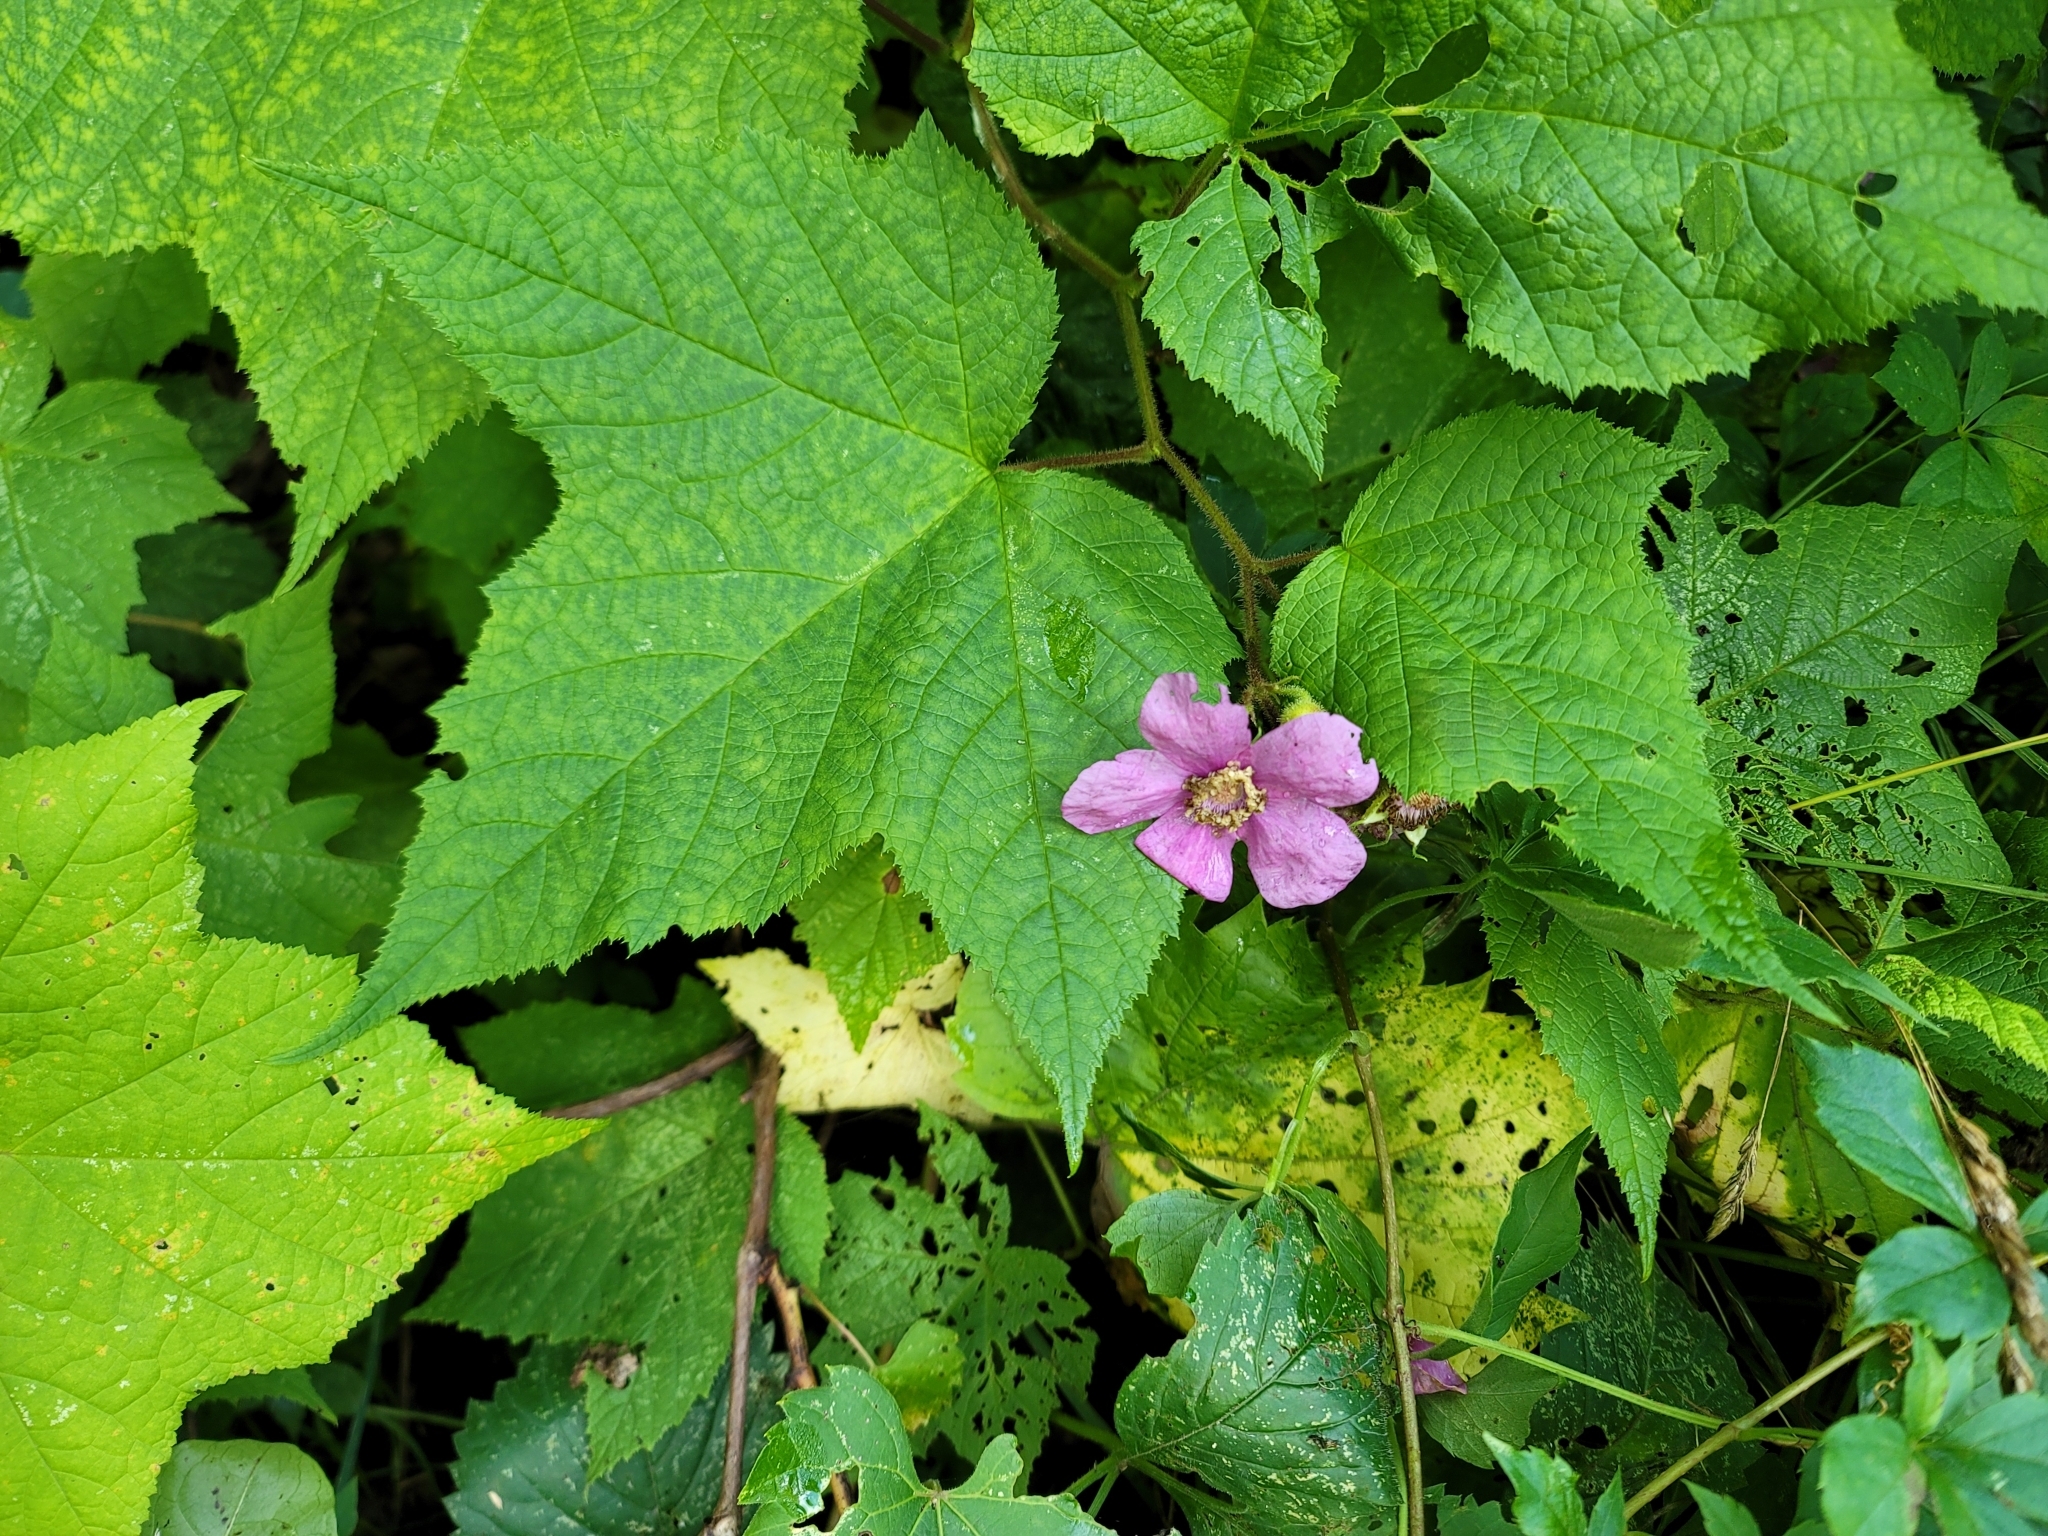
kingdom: Plantae
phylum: Tracheophyta
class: Magnoliopsida
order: Rosales
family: Rosaceae
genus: Rubus
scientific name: Rubus odoratus
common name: Purple-flowered raspberry
